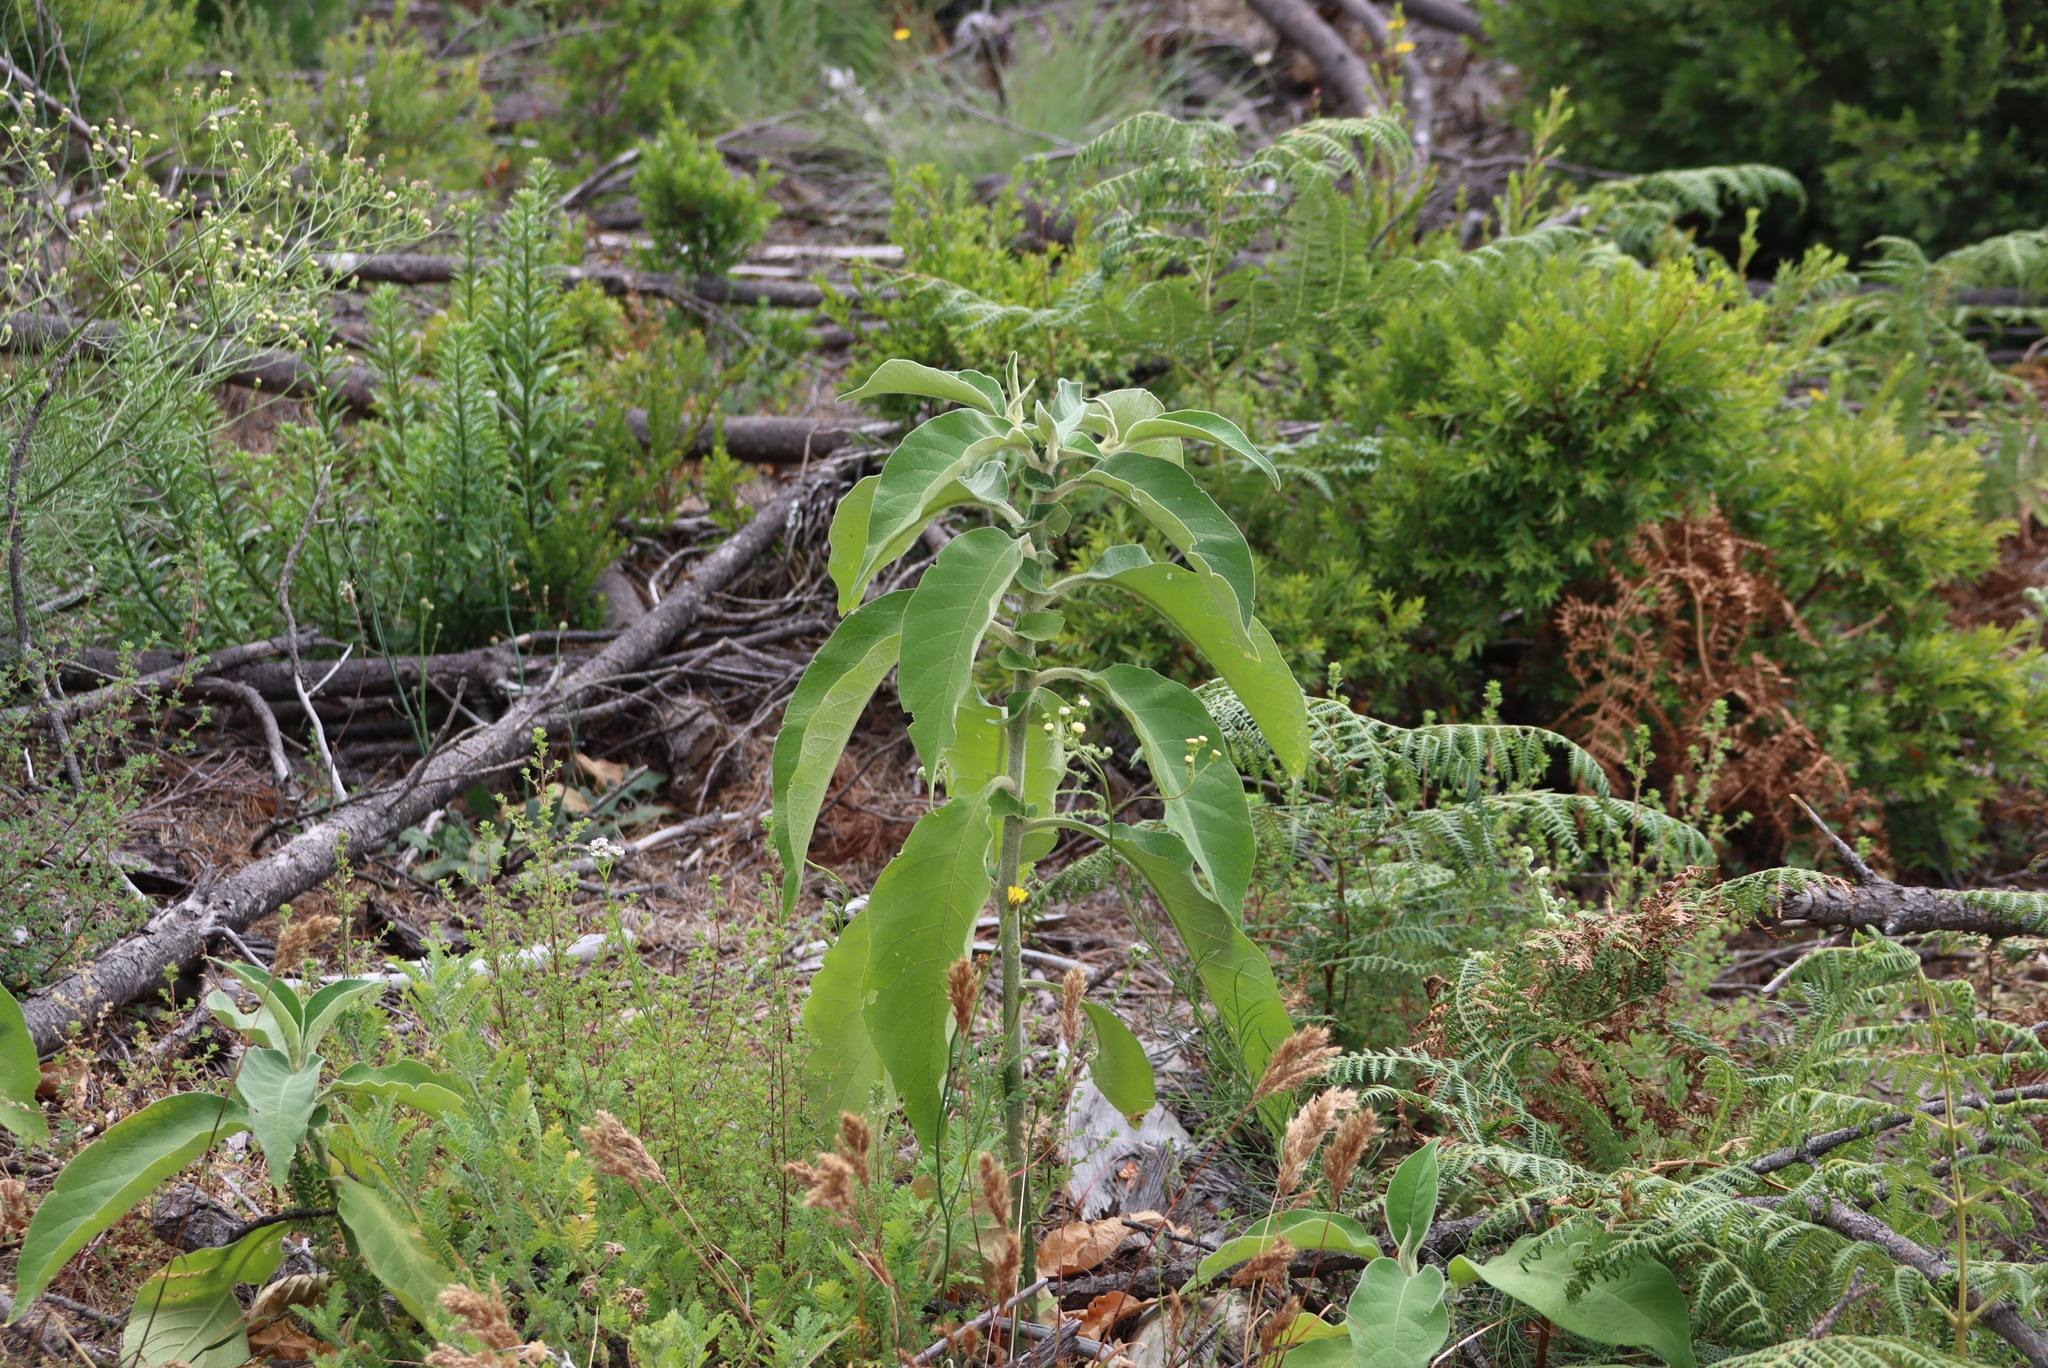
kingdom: Plantae
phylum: Tracheophyta
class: Magnoliopsida
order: Solanales
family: Solanaceae
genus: Solanum
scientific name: Solanum mauritianum
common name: Earleaf nightshade
